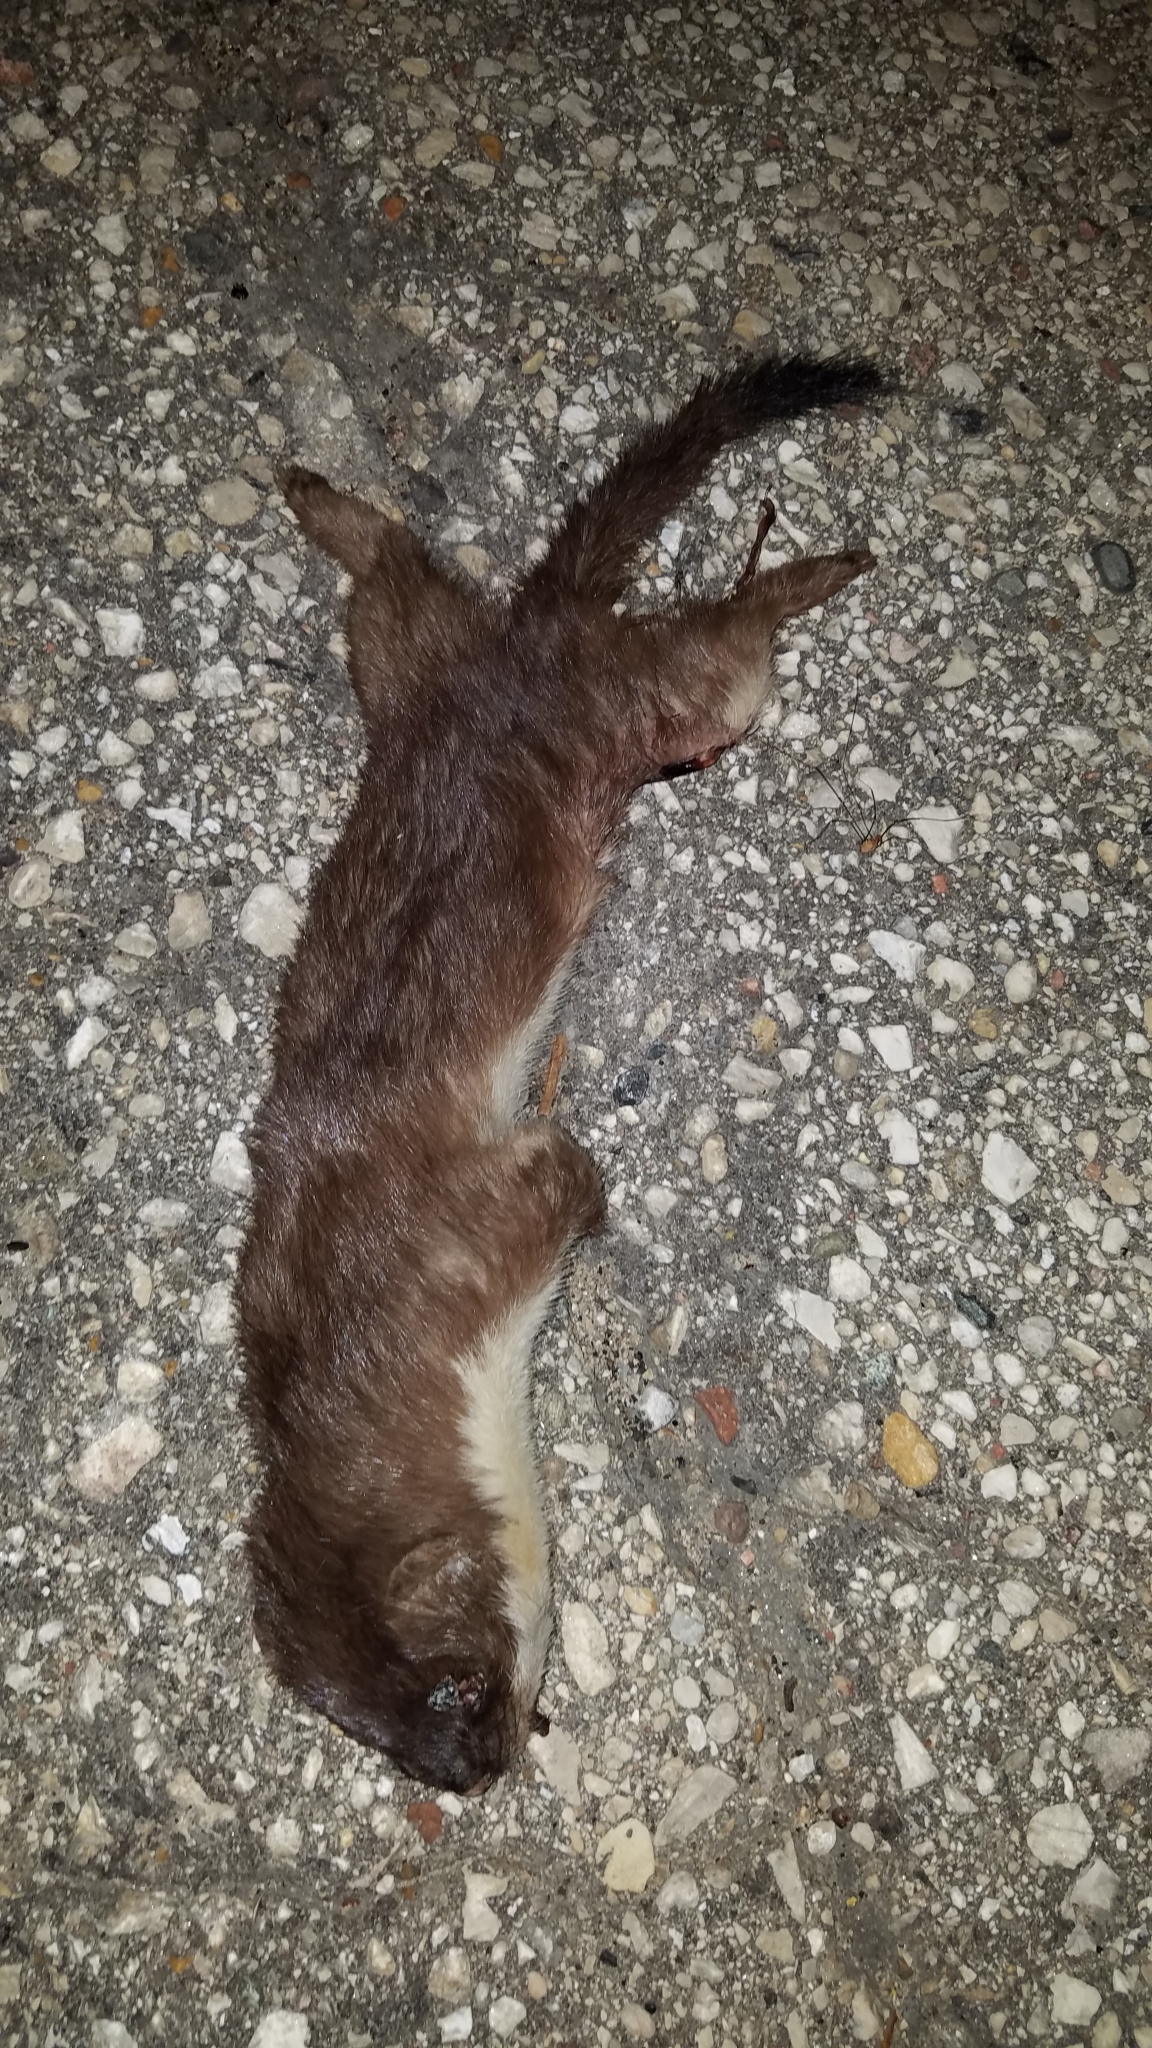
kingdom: Animalia
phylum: Chordata
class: Mammalia
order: Carnivora
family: Mustelidae
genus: Mustela
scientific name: Mustela erminea
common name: Stoat
